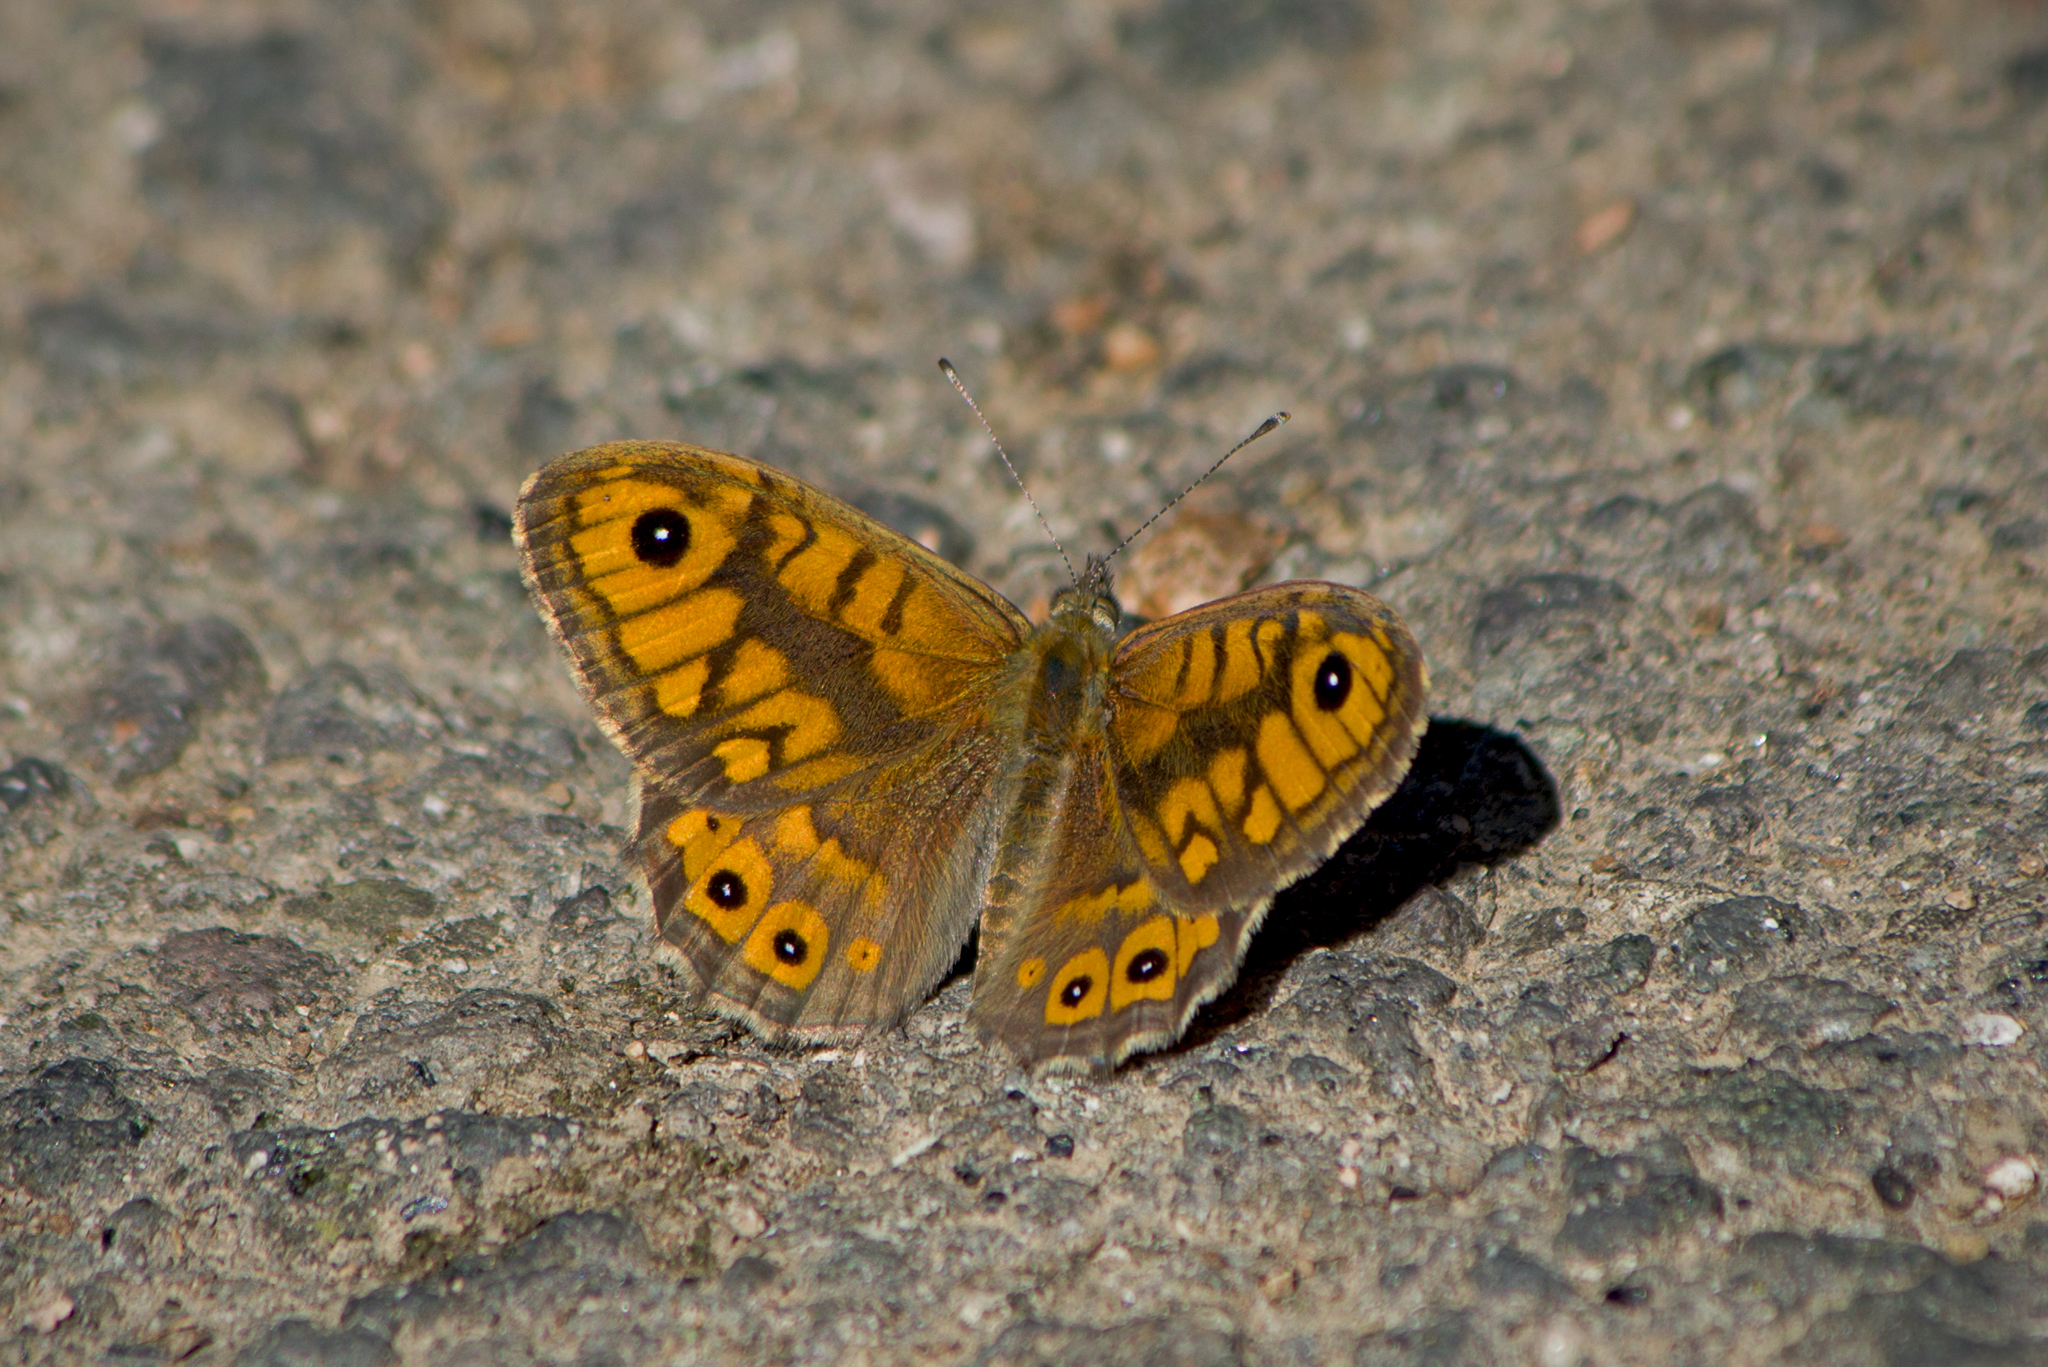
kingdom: Animalia
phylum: Arthropoda
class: Insecta
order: Lepidoptera
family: Nymphalidae
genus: Pararge
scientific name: Pararge Lasiommata megera
